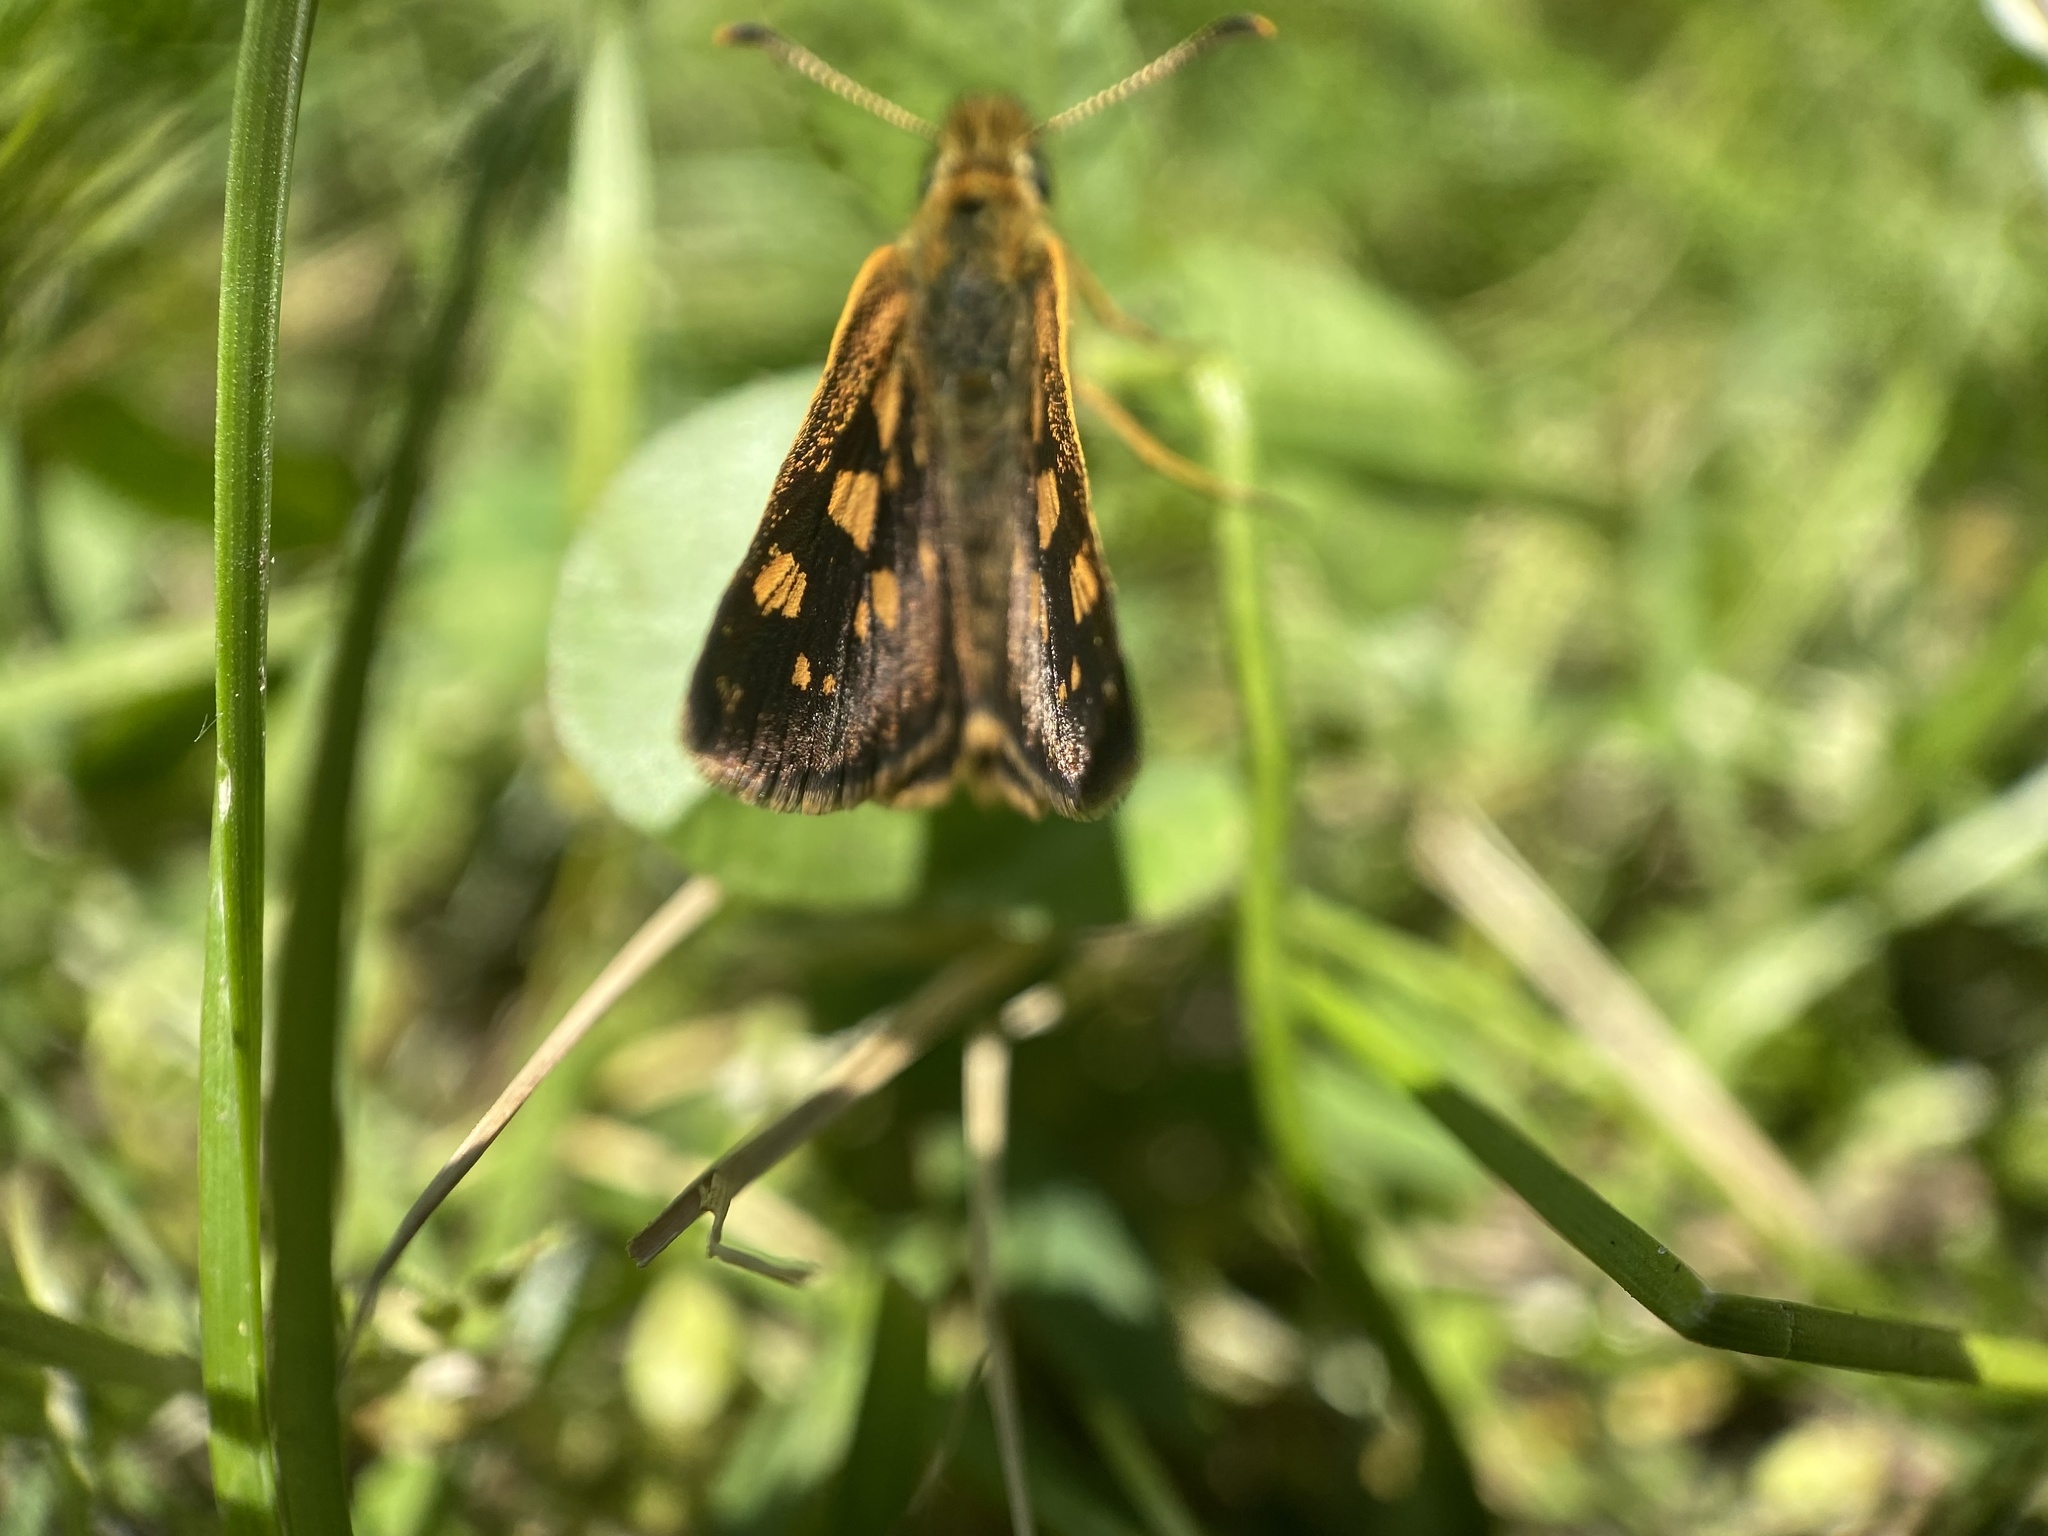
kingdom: Animalia
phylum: Arthropoda
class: Insecta
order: Lepidoptera
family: Hesperiidae
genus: Carterocephalus
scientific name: Carterocephalus mandan
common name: Arctic skipperling
